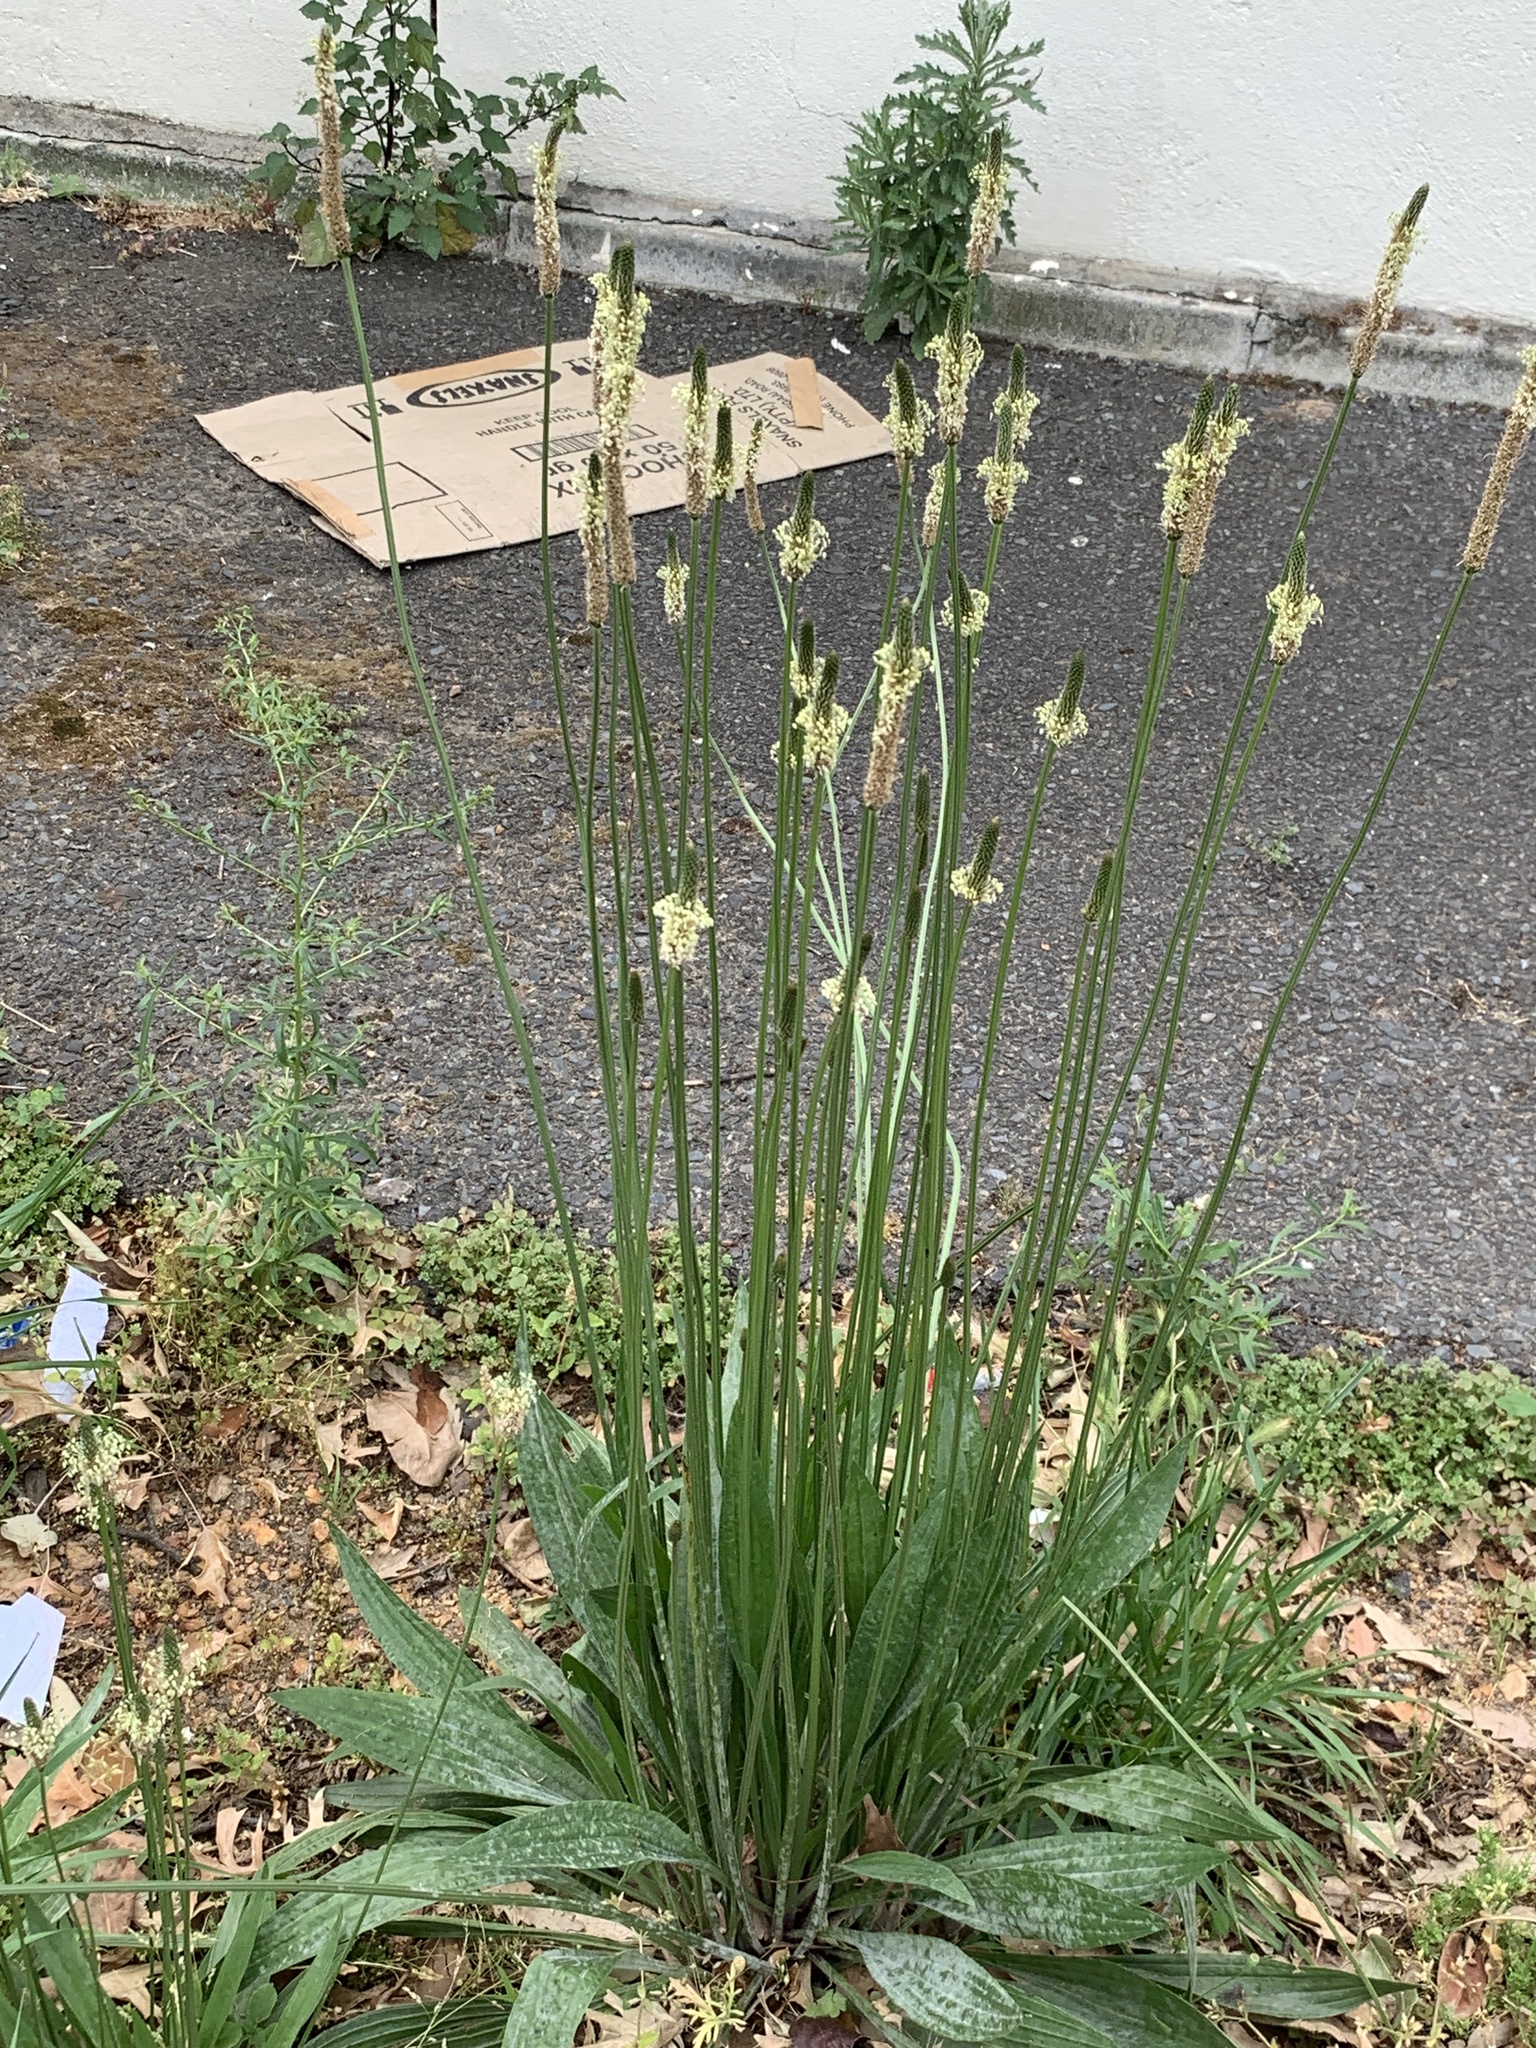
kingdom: Plantae
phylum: Tracheophyta
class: Magnoliopsida
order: Lamiales
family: Plantaginaceae
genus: Plantago
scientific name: Plantago lanceolata
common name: Ribwort plantain
